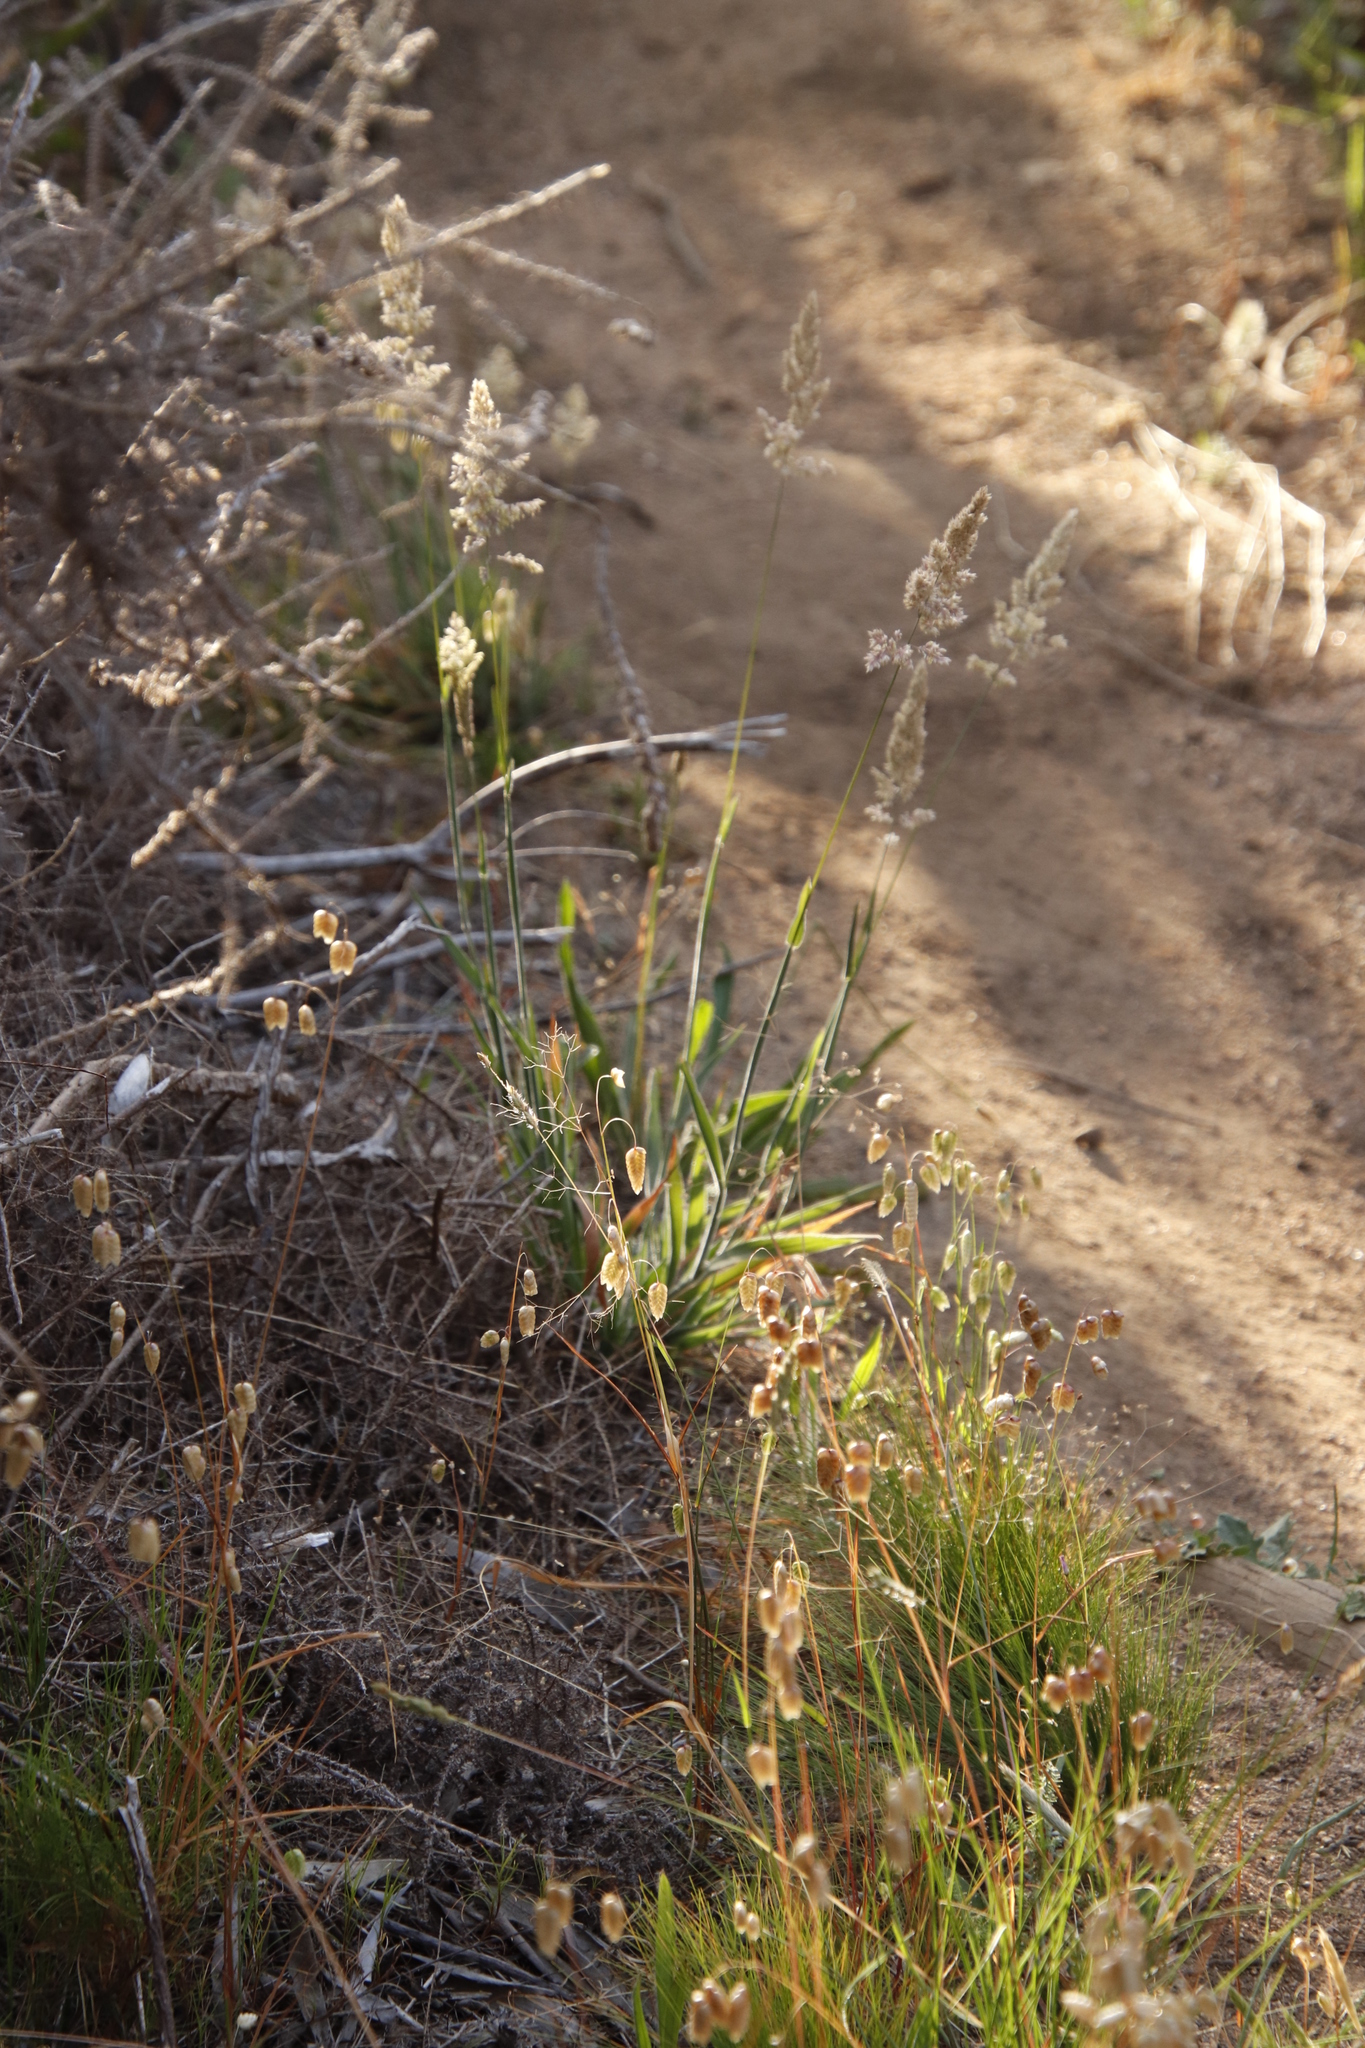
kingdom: Plantae
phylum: Tracheophyta
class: Liliopsida
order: Poales
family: Poaceae
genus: Holcus
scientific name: Holcus lanatus
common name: Yorkshire-fog
